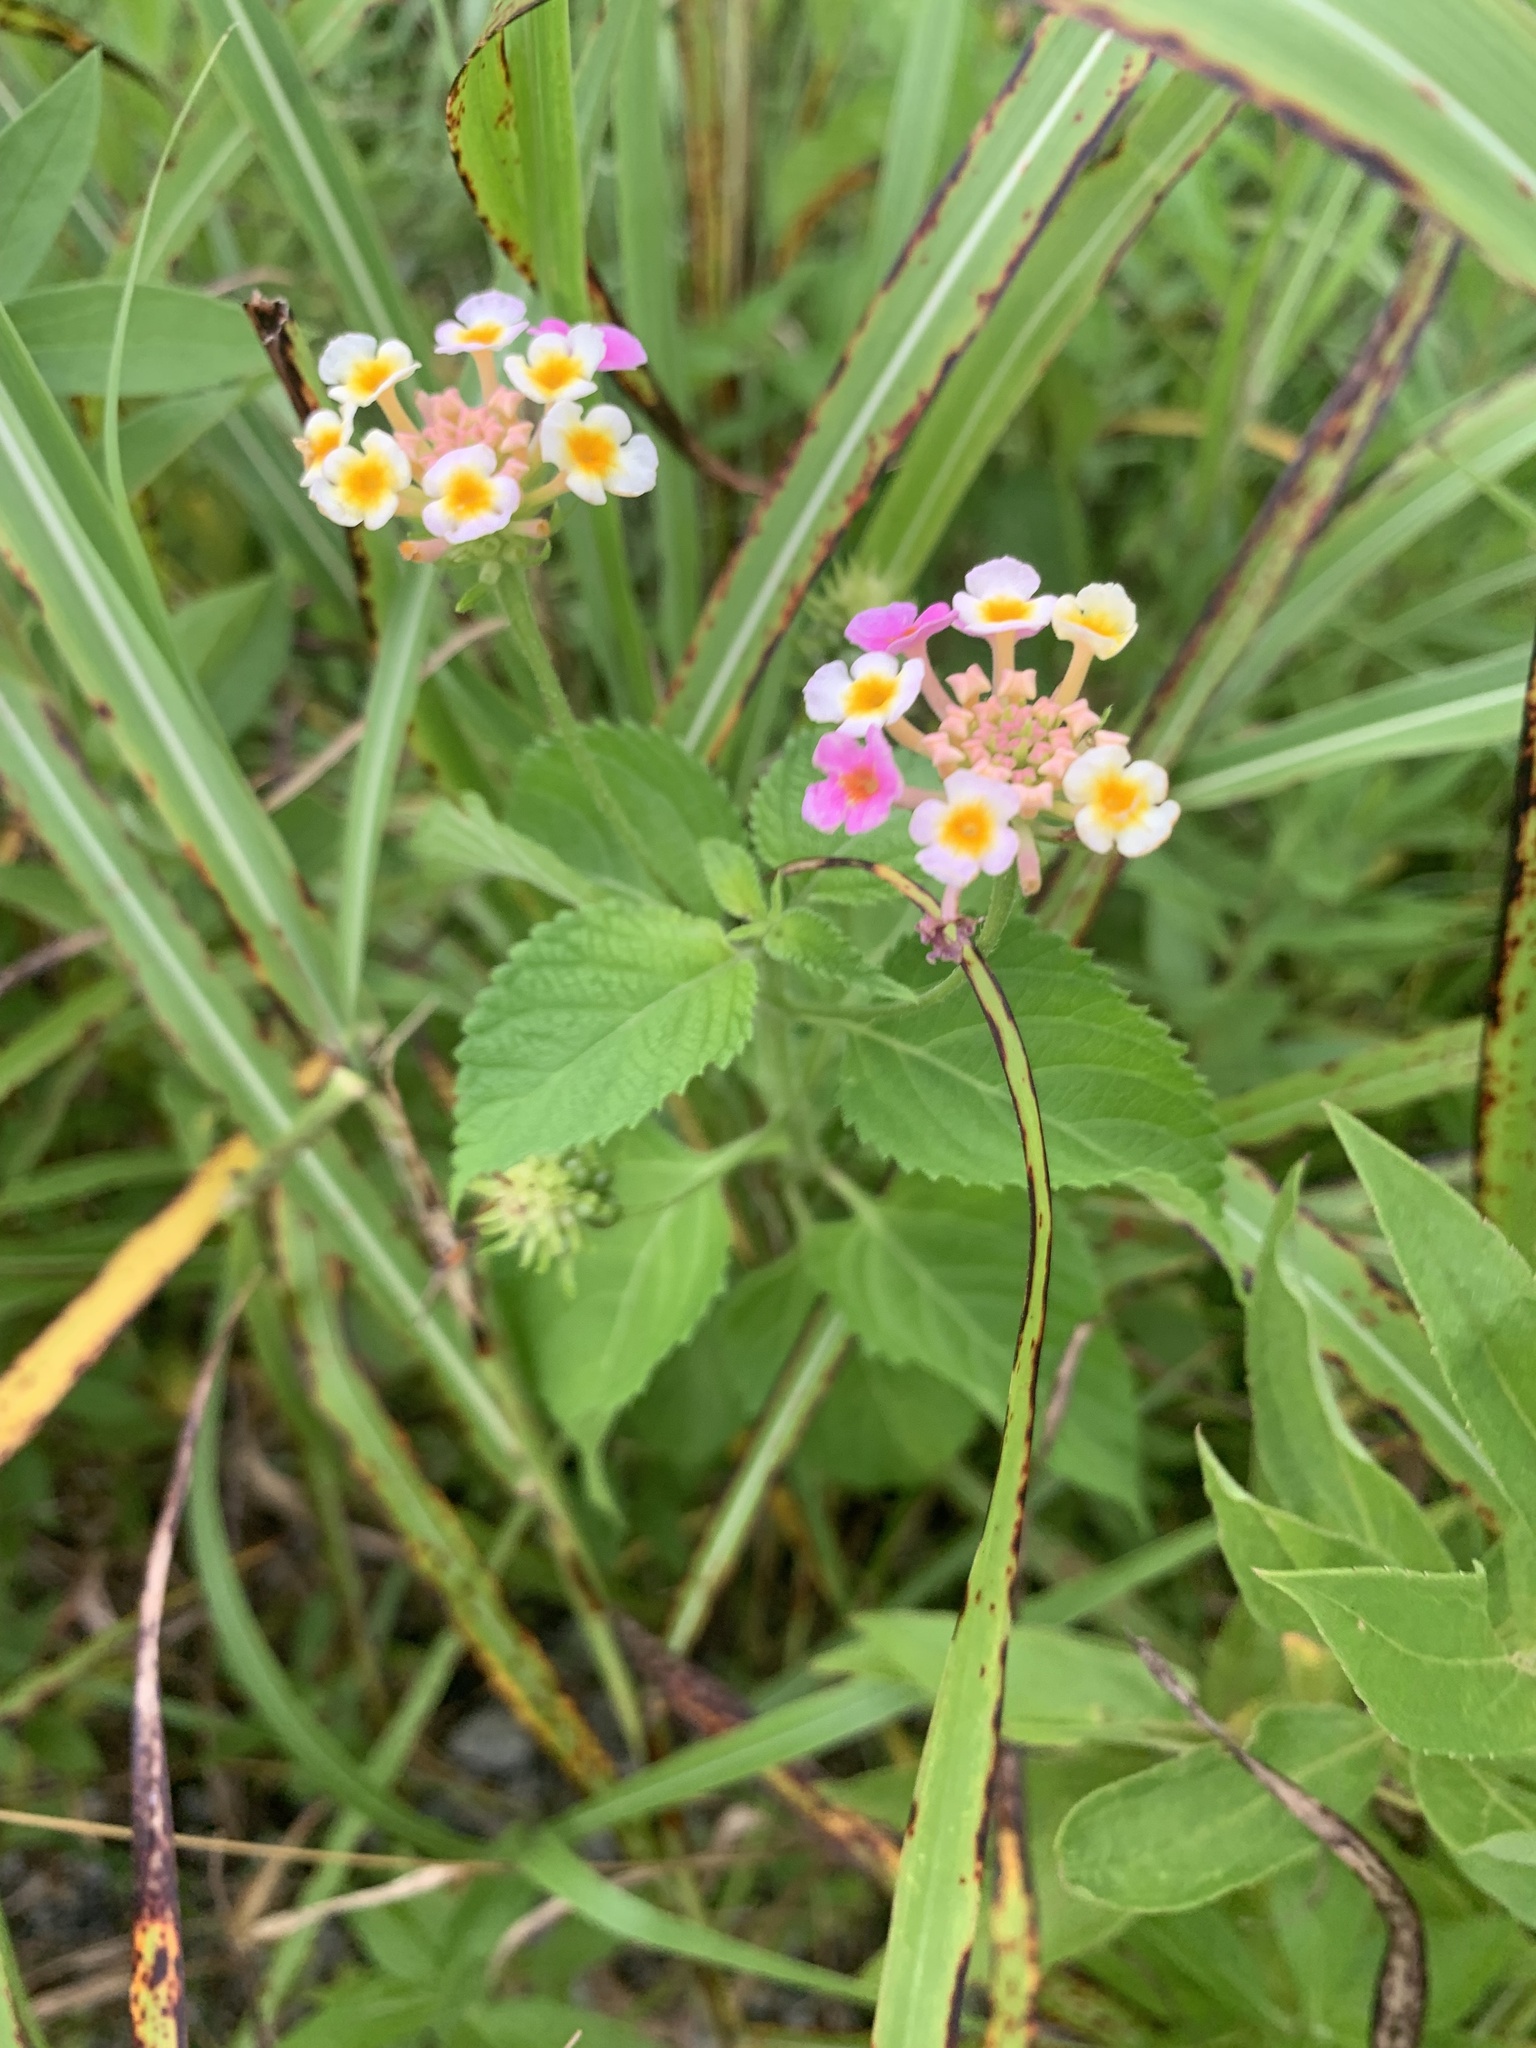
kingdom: Plantae
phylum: Tracheophyta
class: Magnoliopsida
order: Lamiales
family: Verbenaceae
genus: Lantana
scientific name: Lantana camara
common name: Lantana
